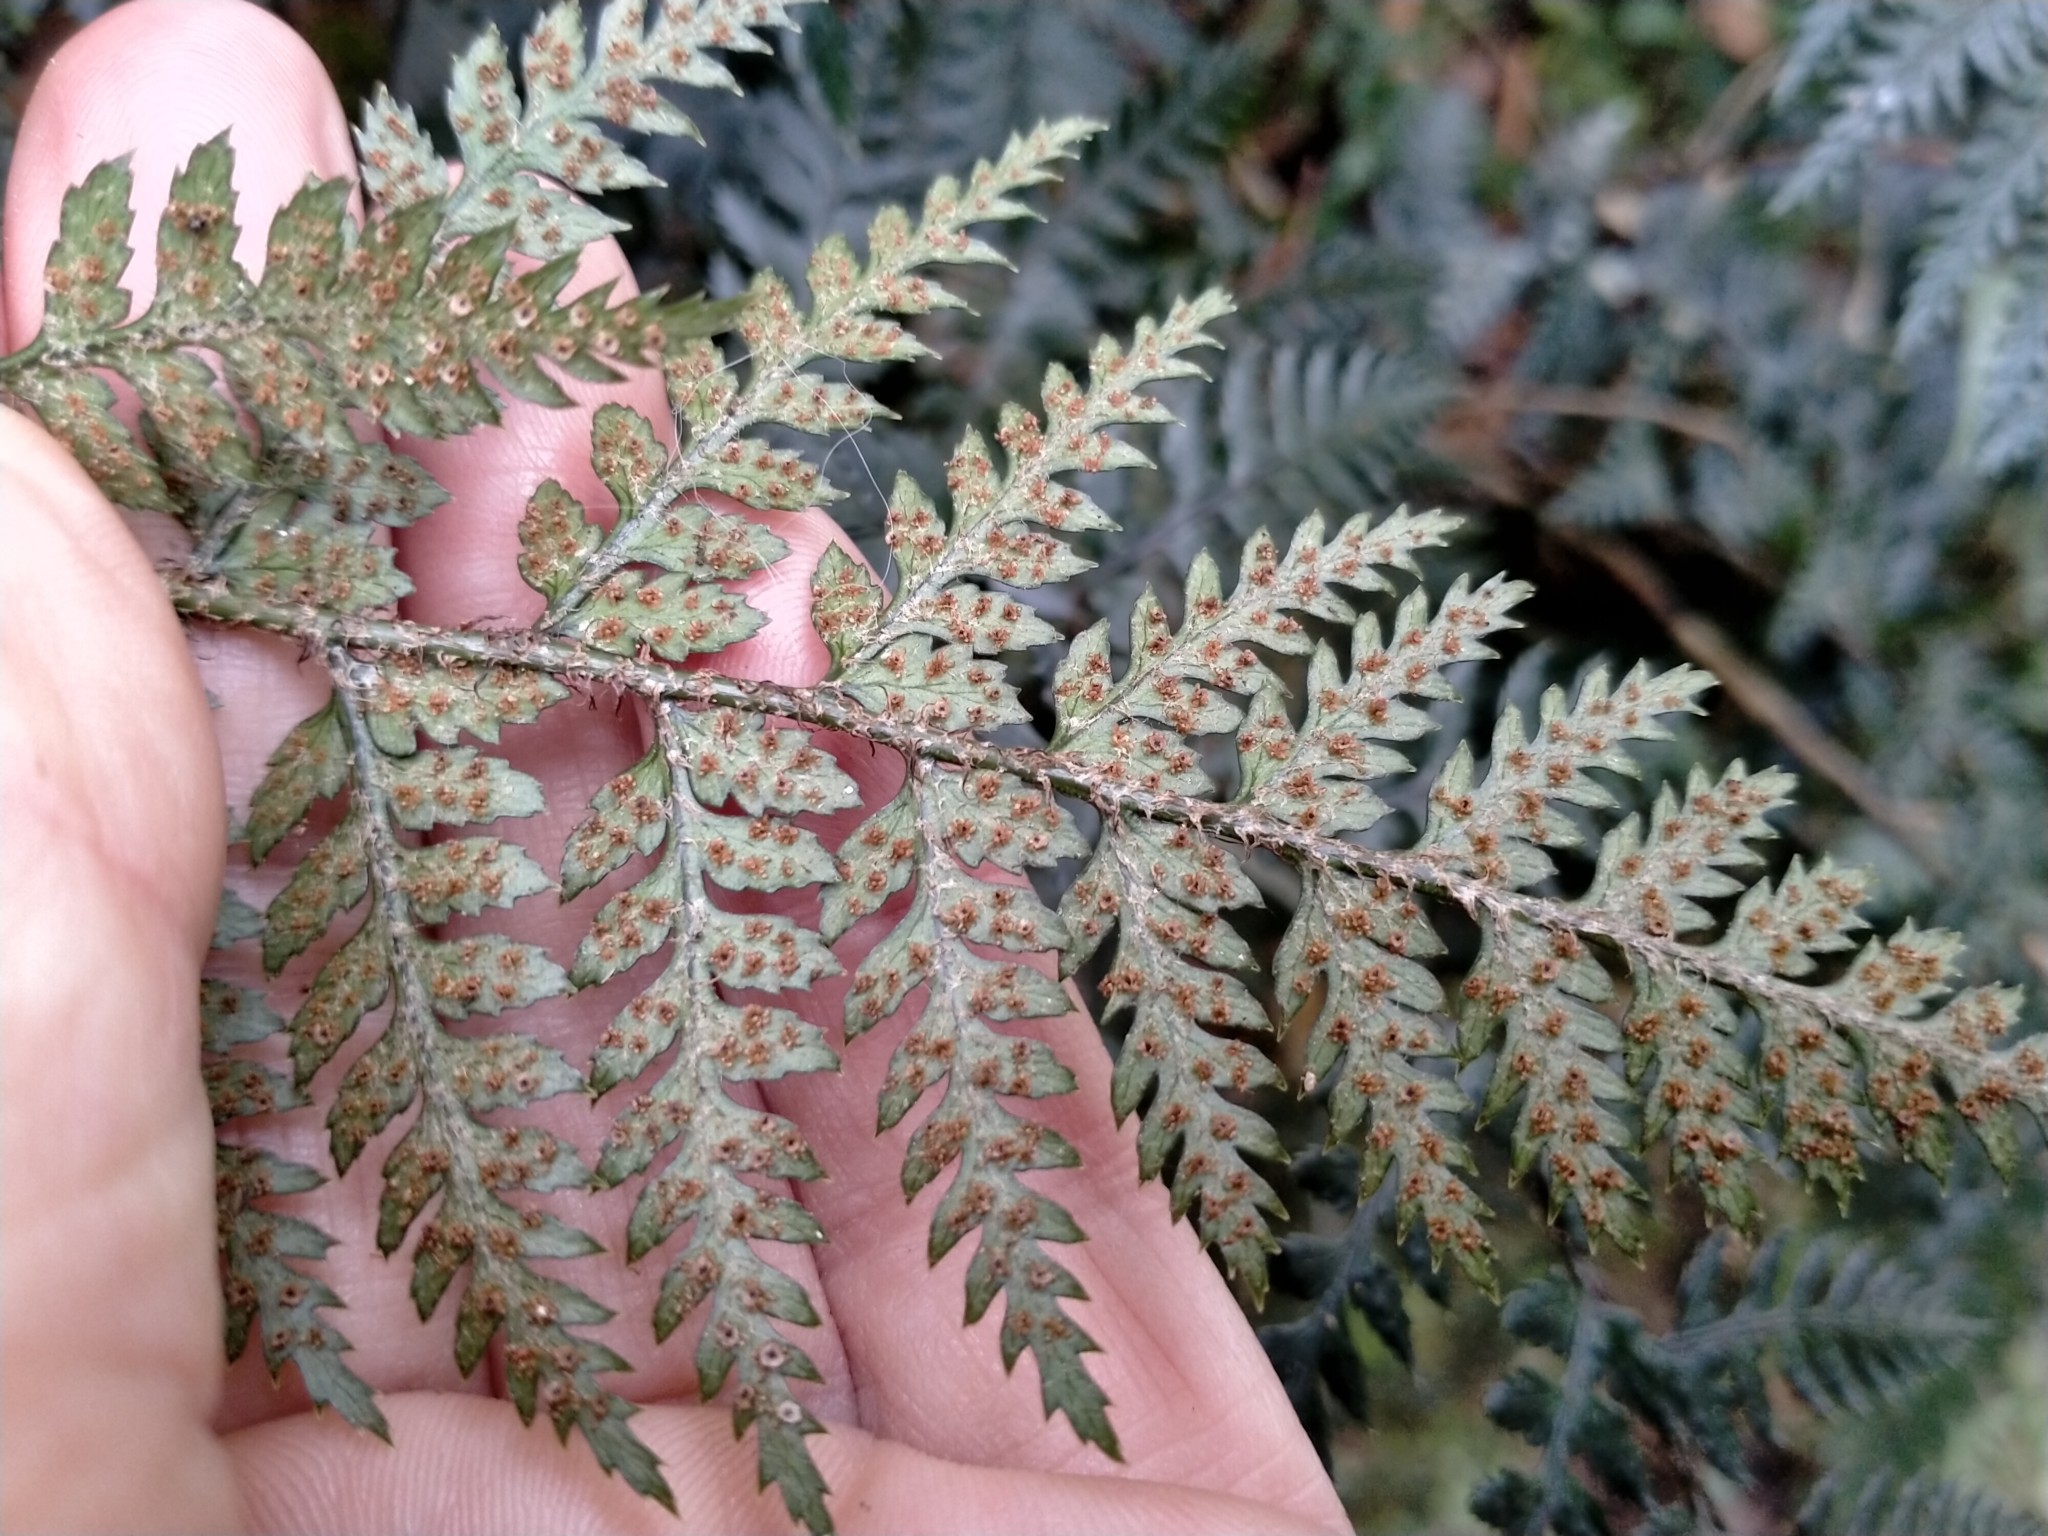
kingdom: Plantae
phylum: Tracheophyta
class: Polypodiopsida
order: Polypodiales
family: Dryopteridaceae
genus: Polystichum
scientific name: Polystichum neozelandicum
